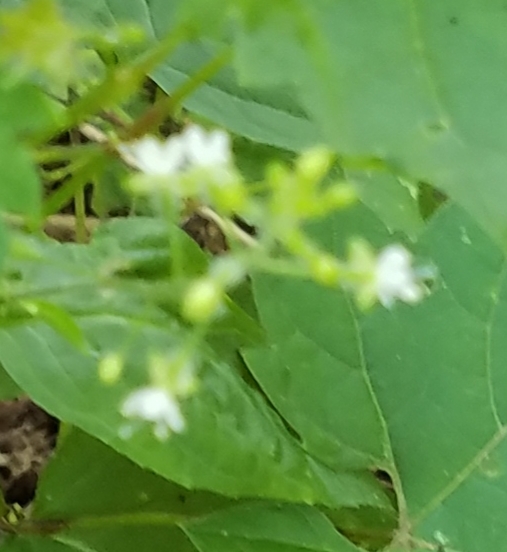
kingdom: Plantae
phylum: Tracheophyta
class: Magnoliopsida
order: Myrtales
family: Onagraceae
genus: Circaea
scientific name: Circaea canadensis
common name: Broad-leaved enchanter's nightshade
